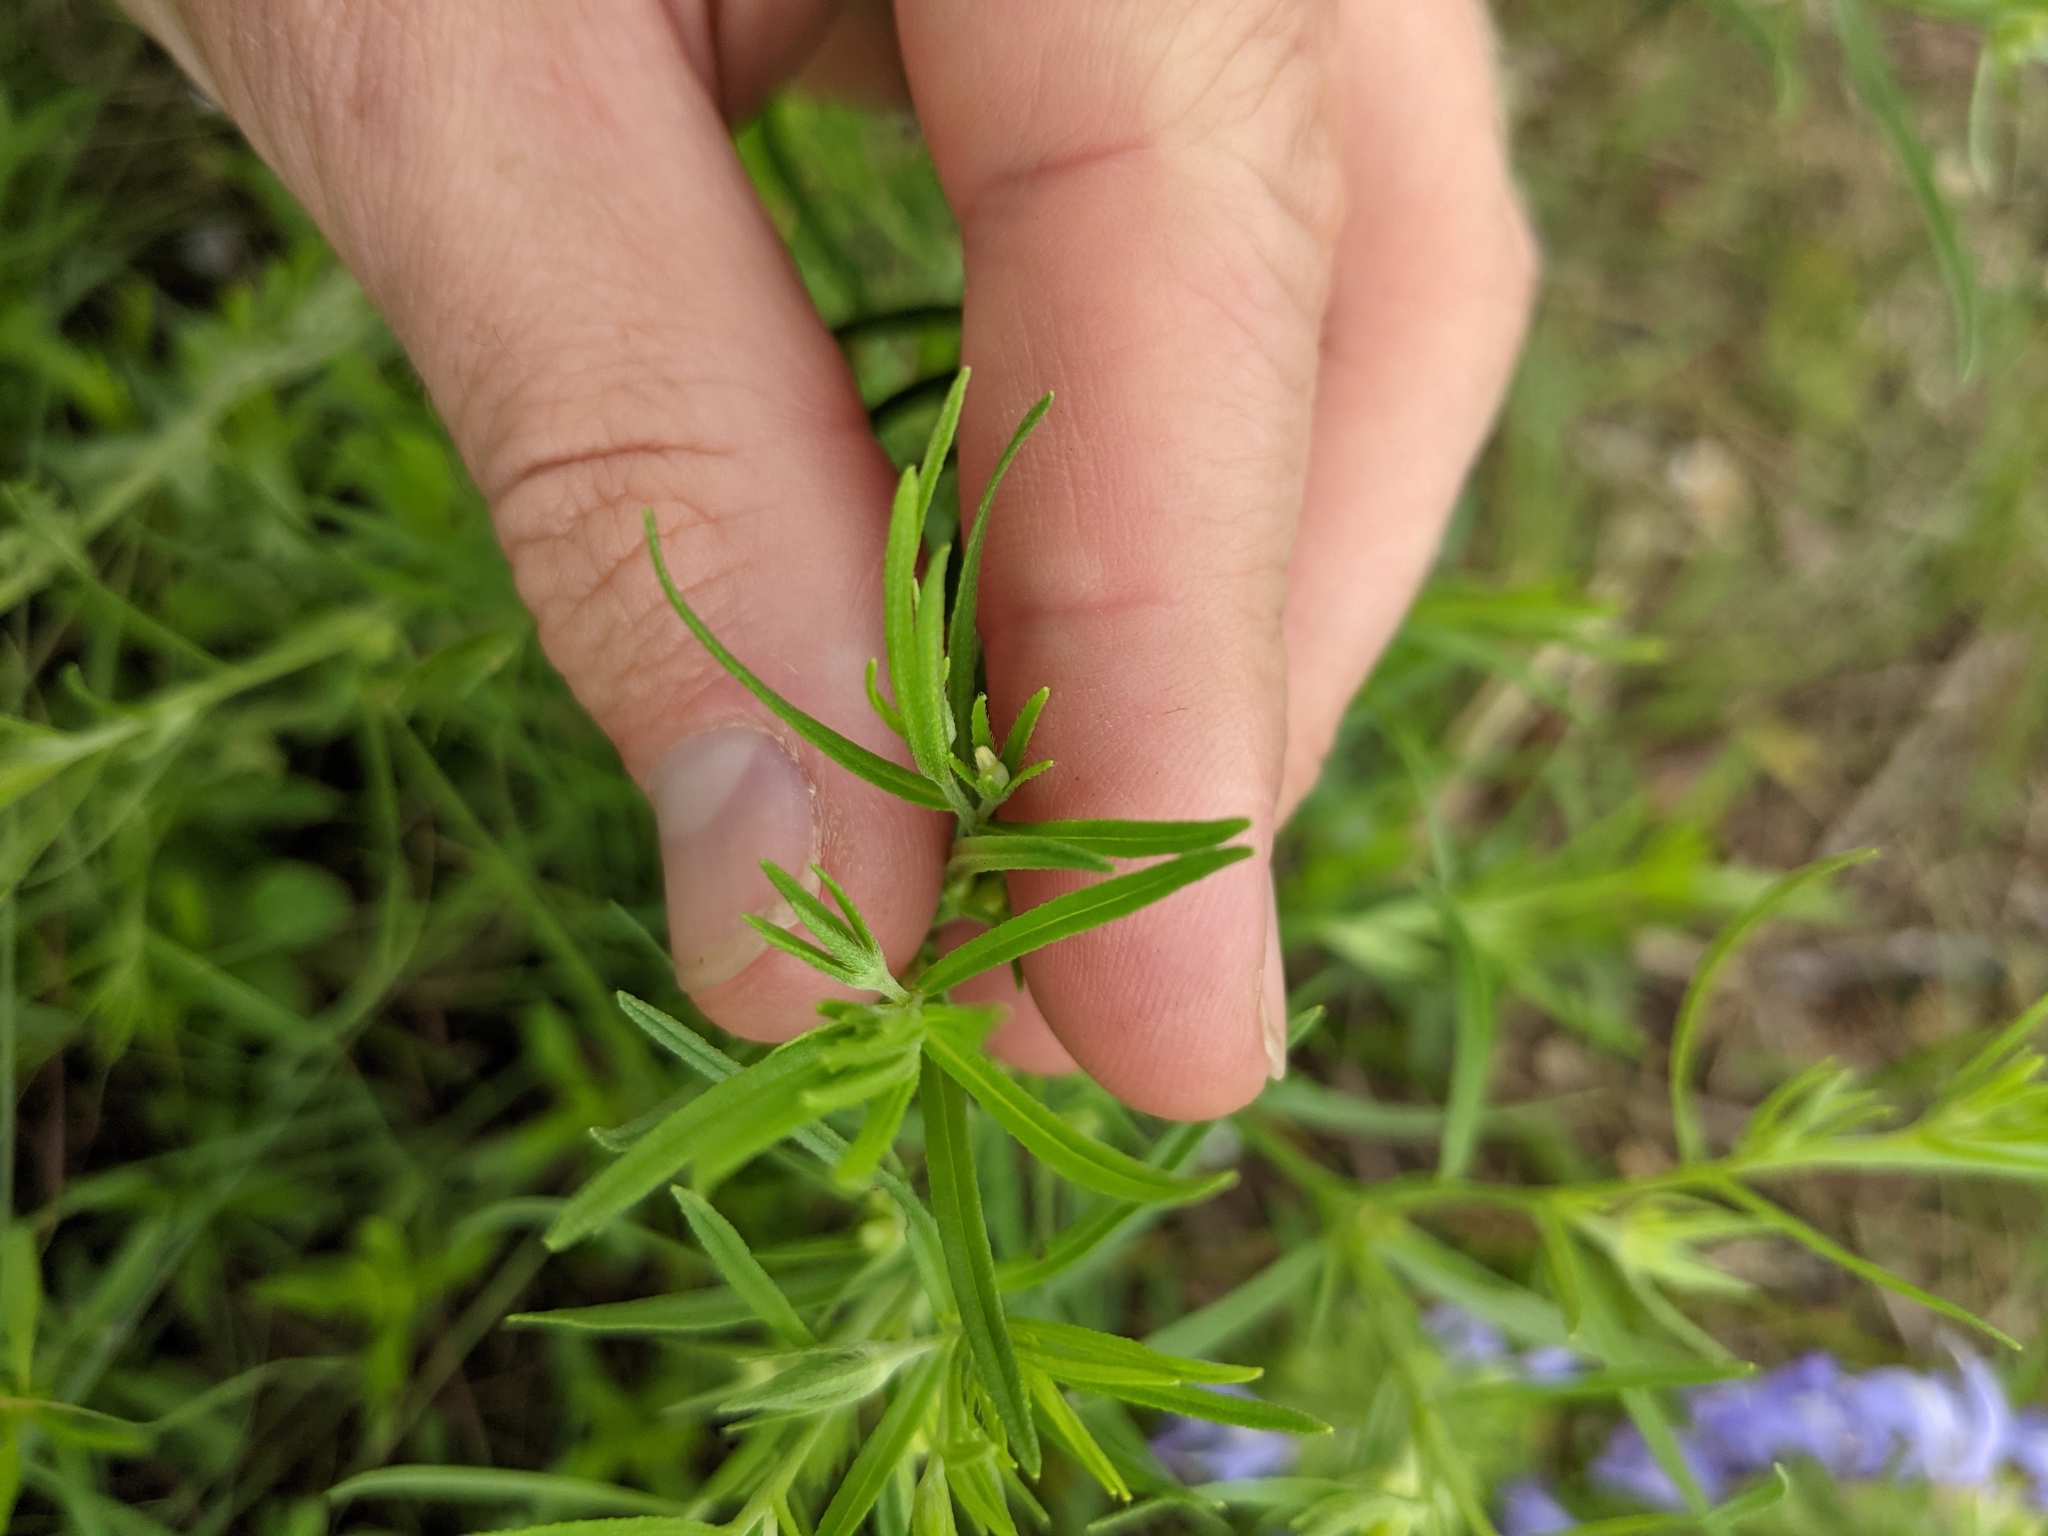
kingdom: Plantae
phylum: Tracheophyta
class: Magnoliopsida
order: Boraginales
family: Boraginaceae
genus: Lithospermum
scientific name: Lithospermum incisum
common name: Fringed gromwell
